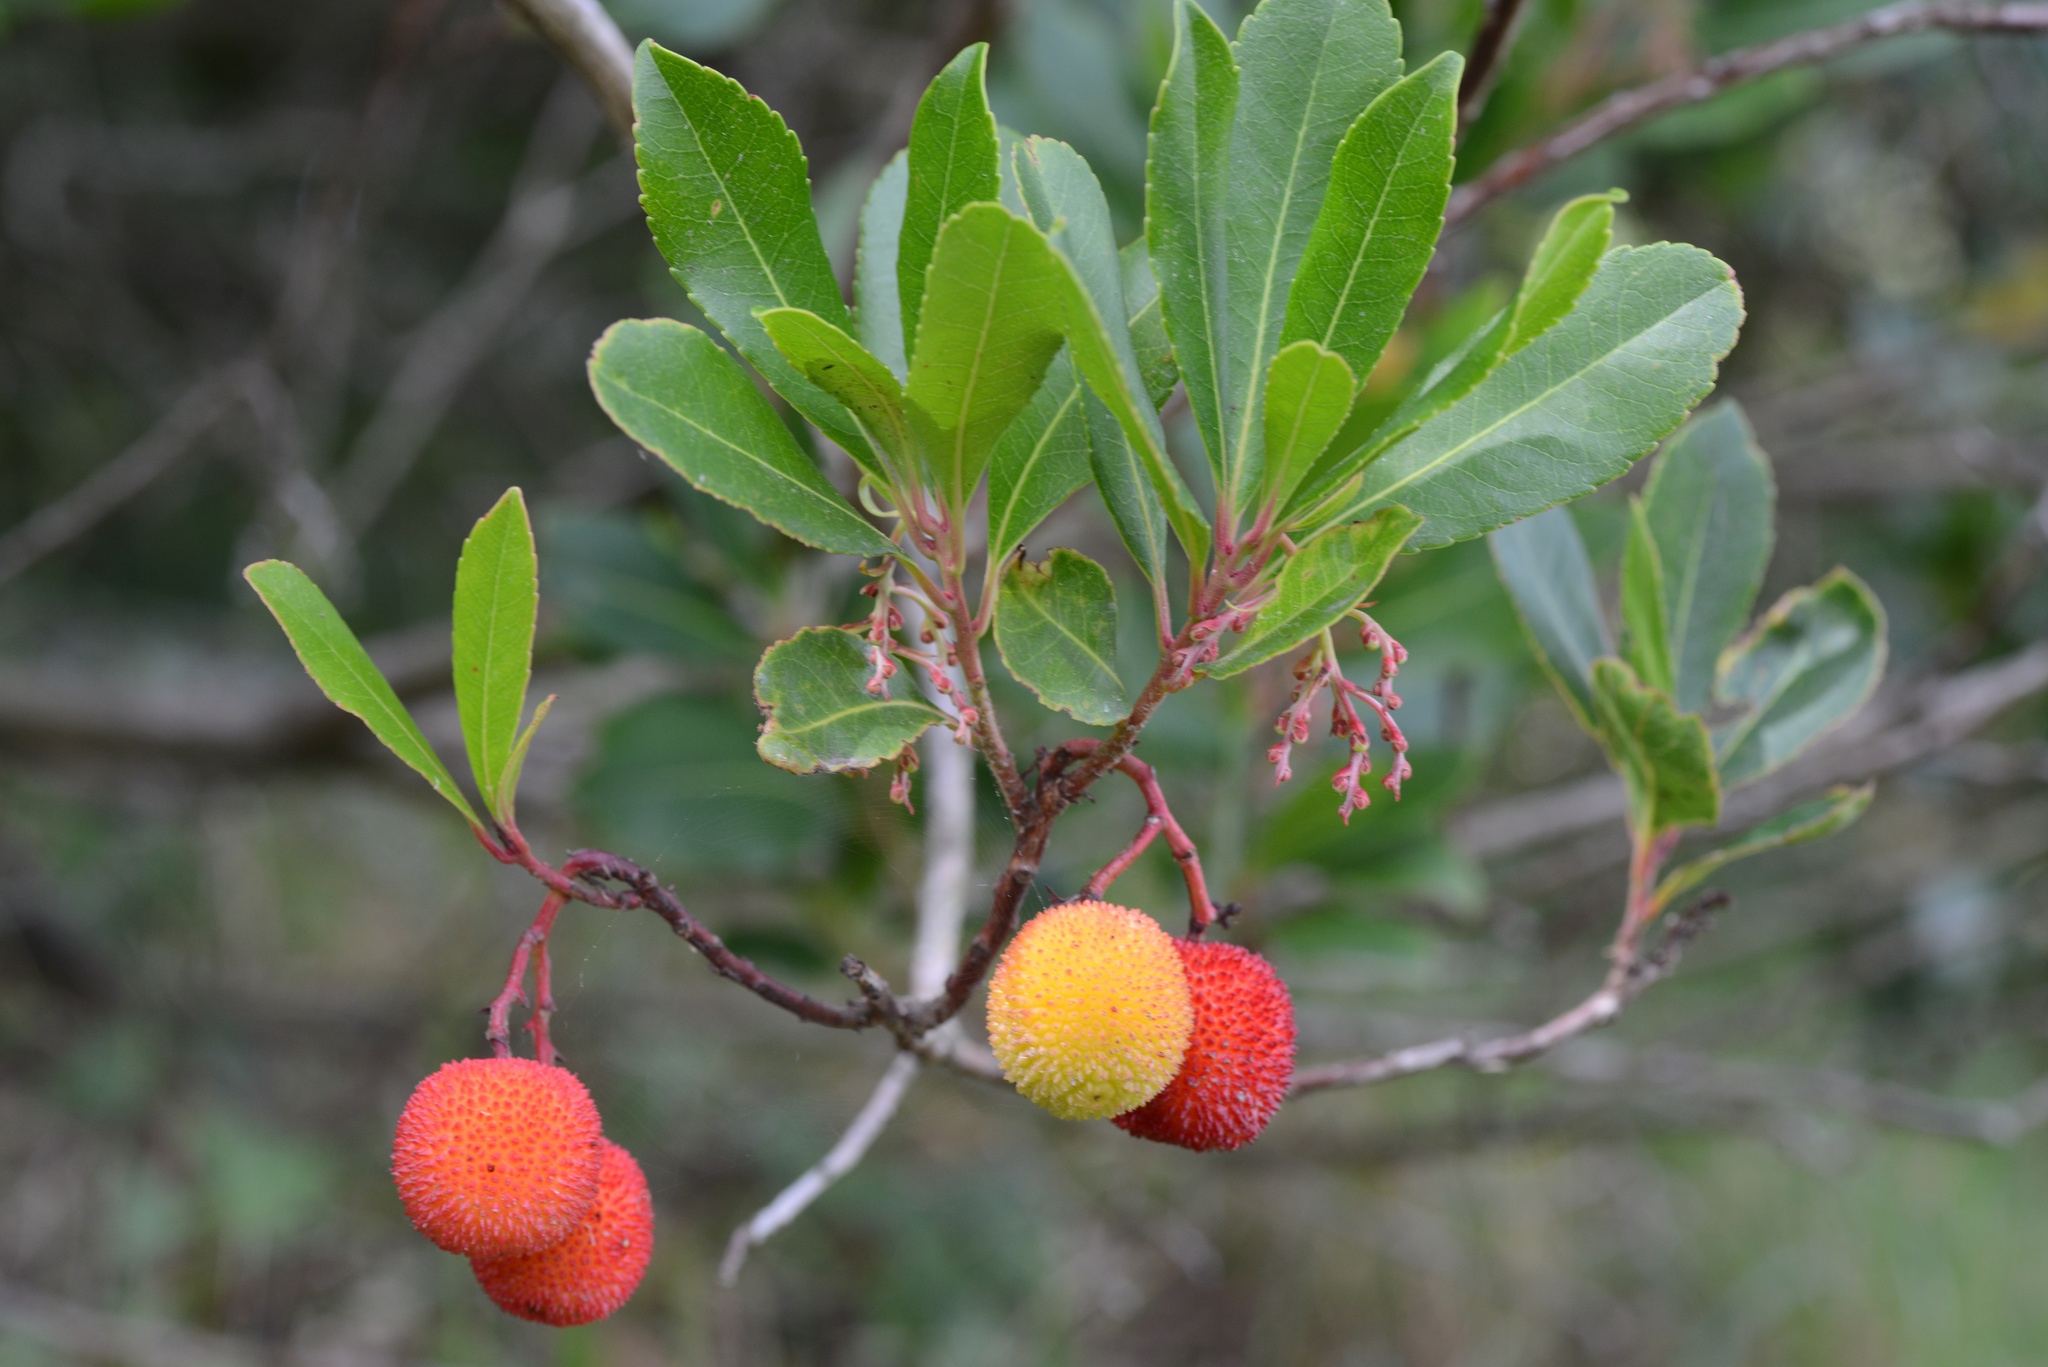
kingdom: Plantae
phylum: Tracheophyta
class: Magnoliopsida
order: Ericales
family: Ericaceae
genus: Arbutus
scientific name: Arbutus unedo
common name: Strawberry-tree
